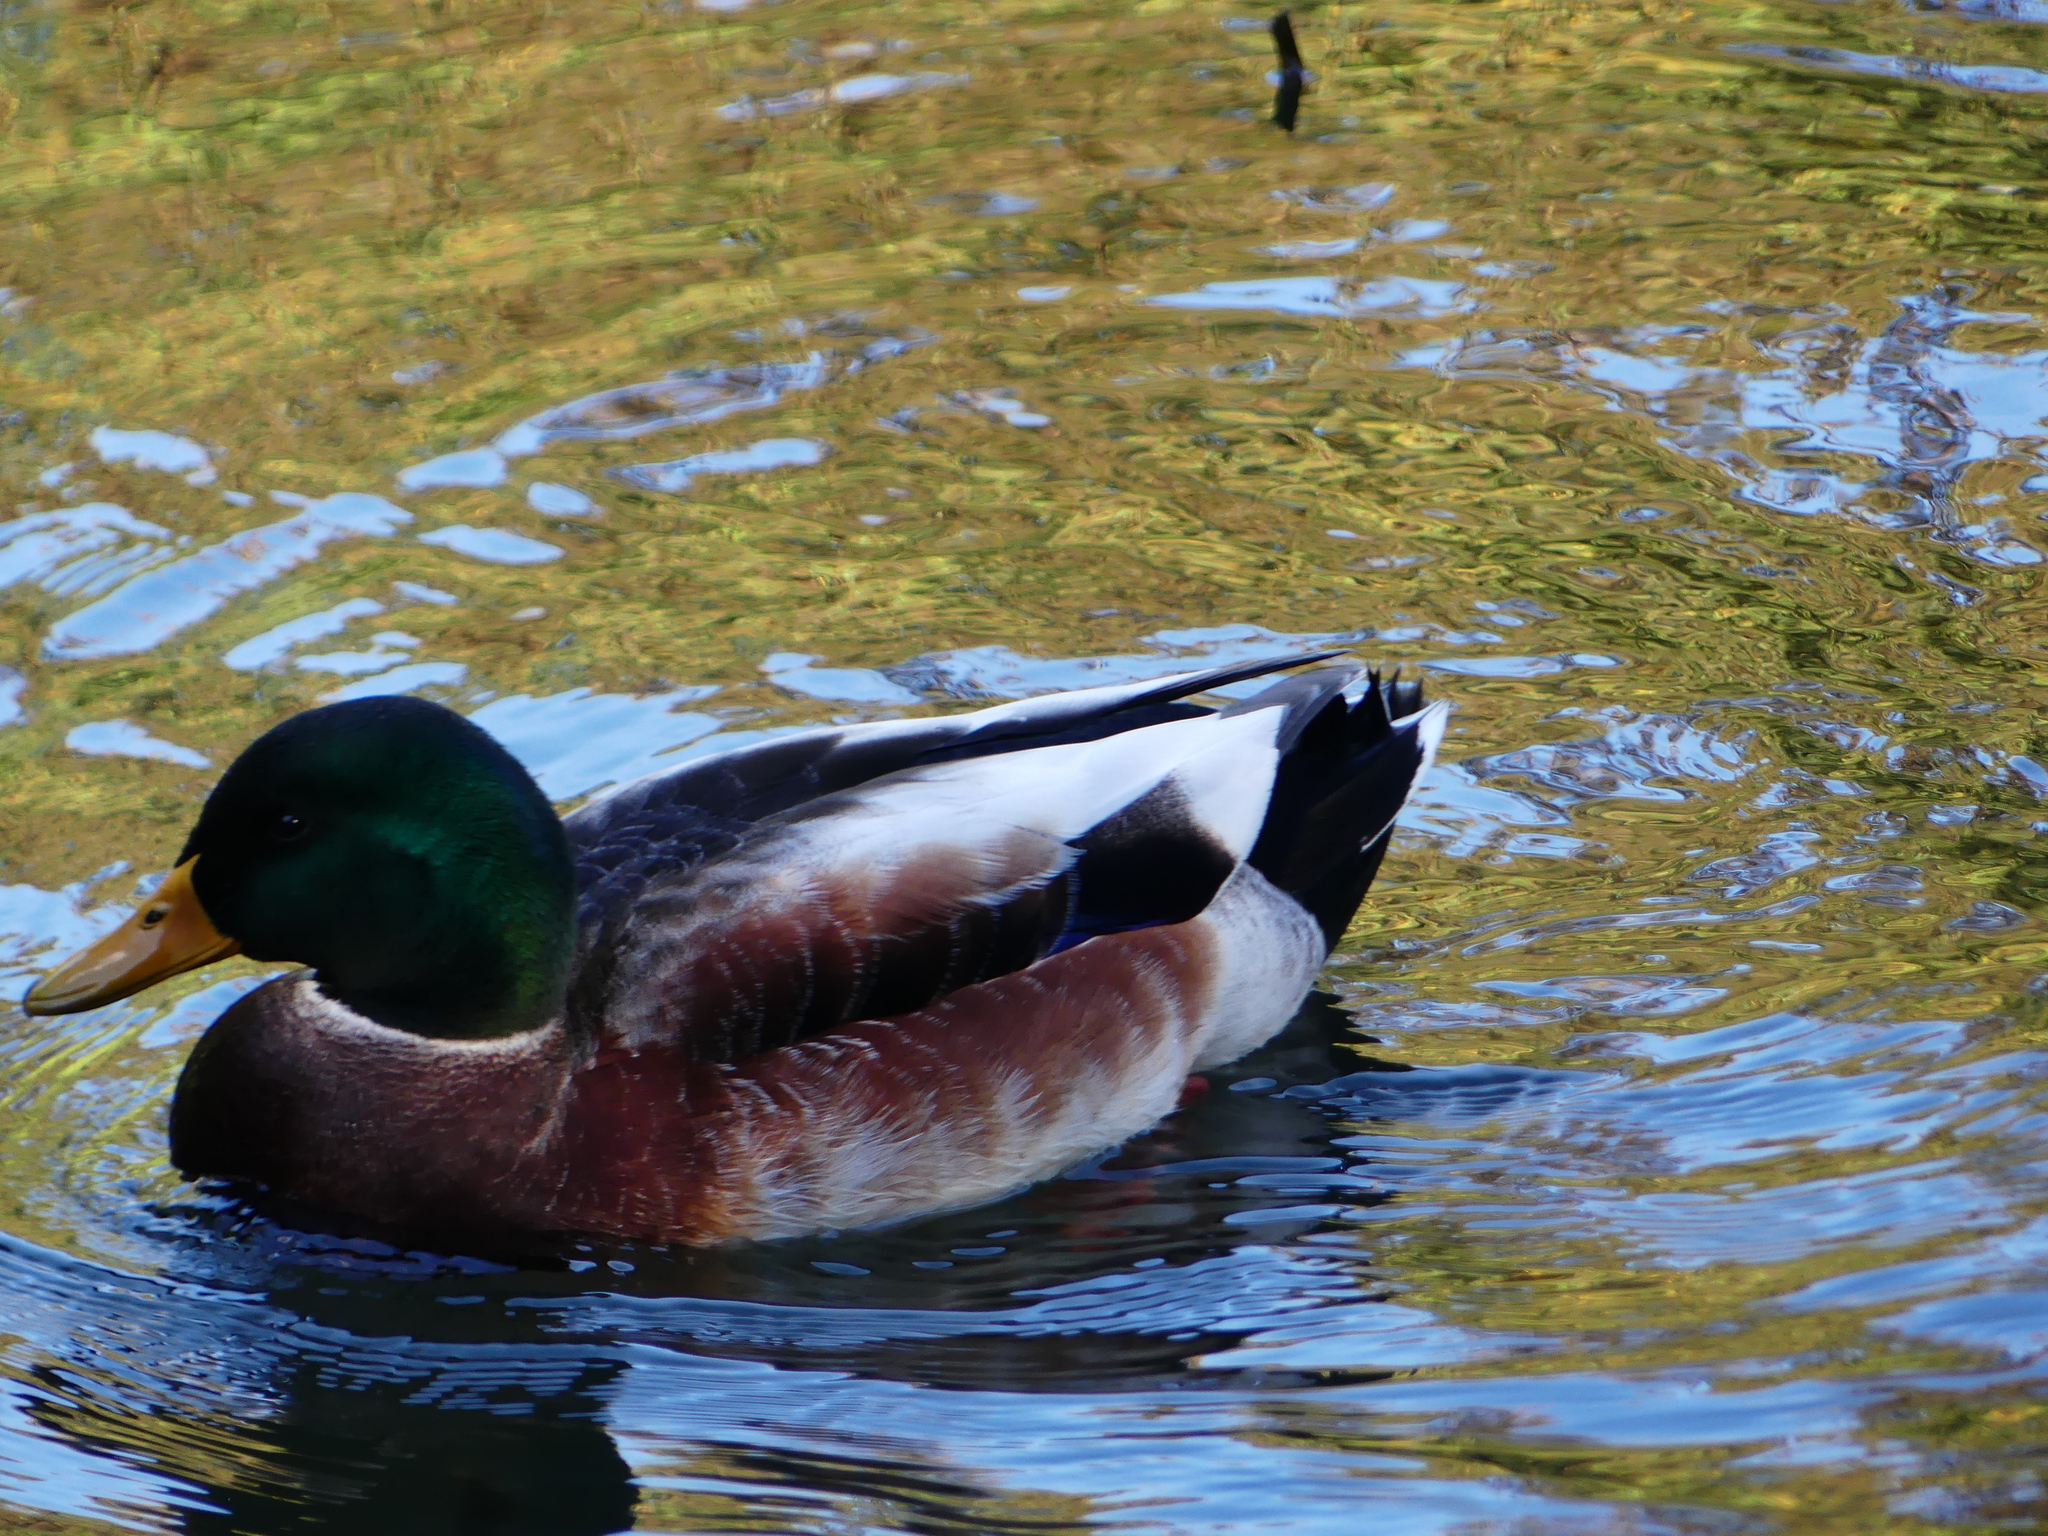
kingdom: Animalia
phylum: Chordata
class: Aves
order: Anseriformes
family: Anatidae
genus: Anas
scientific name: Anas platyrhynchos
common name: Mallard
